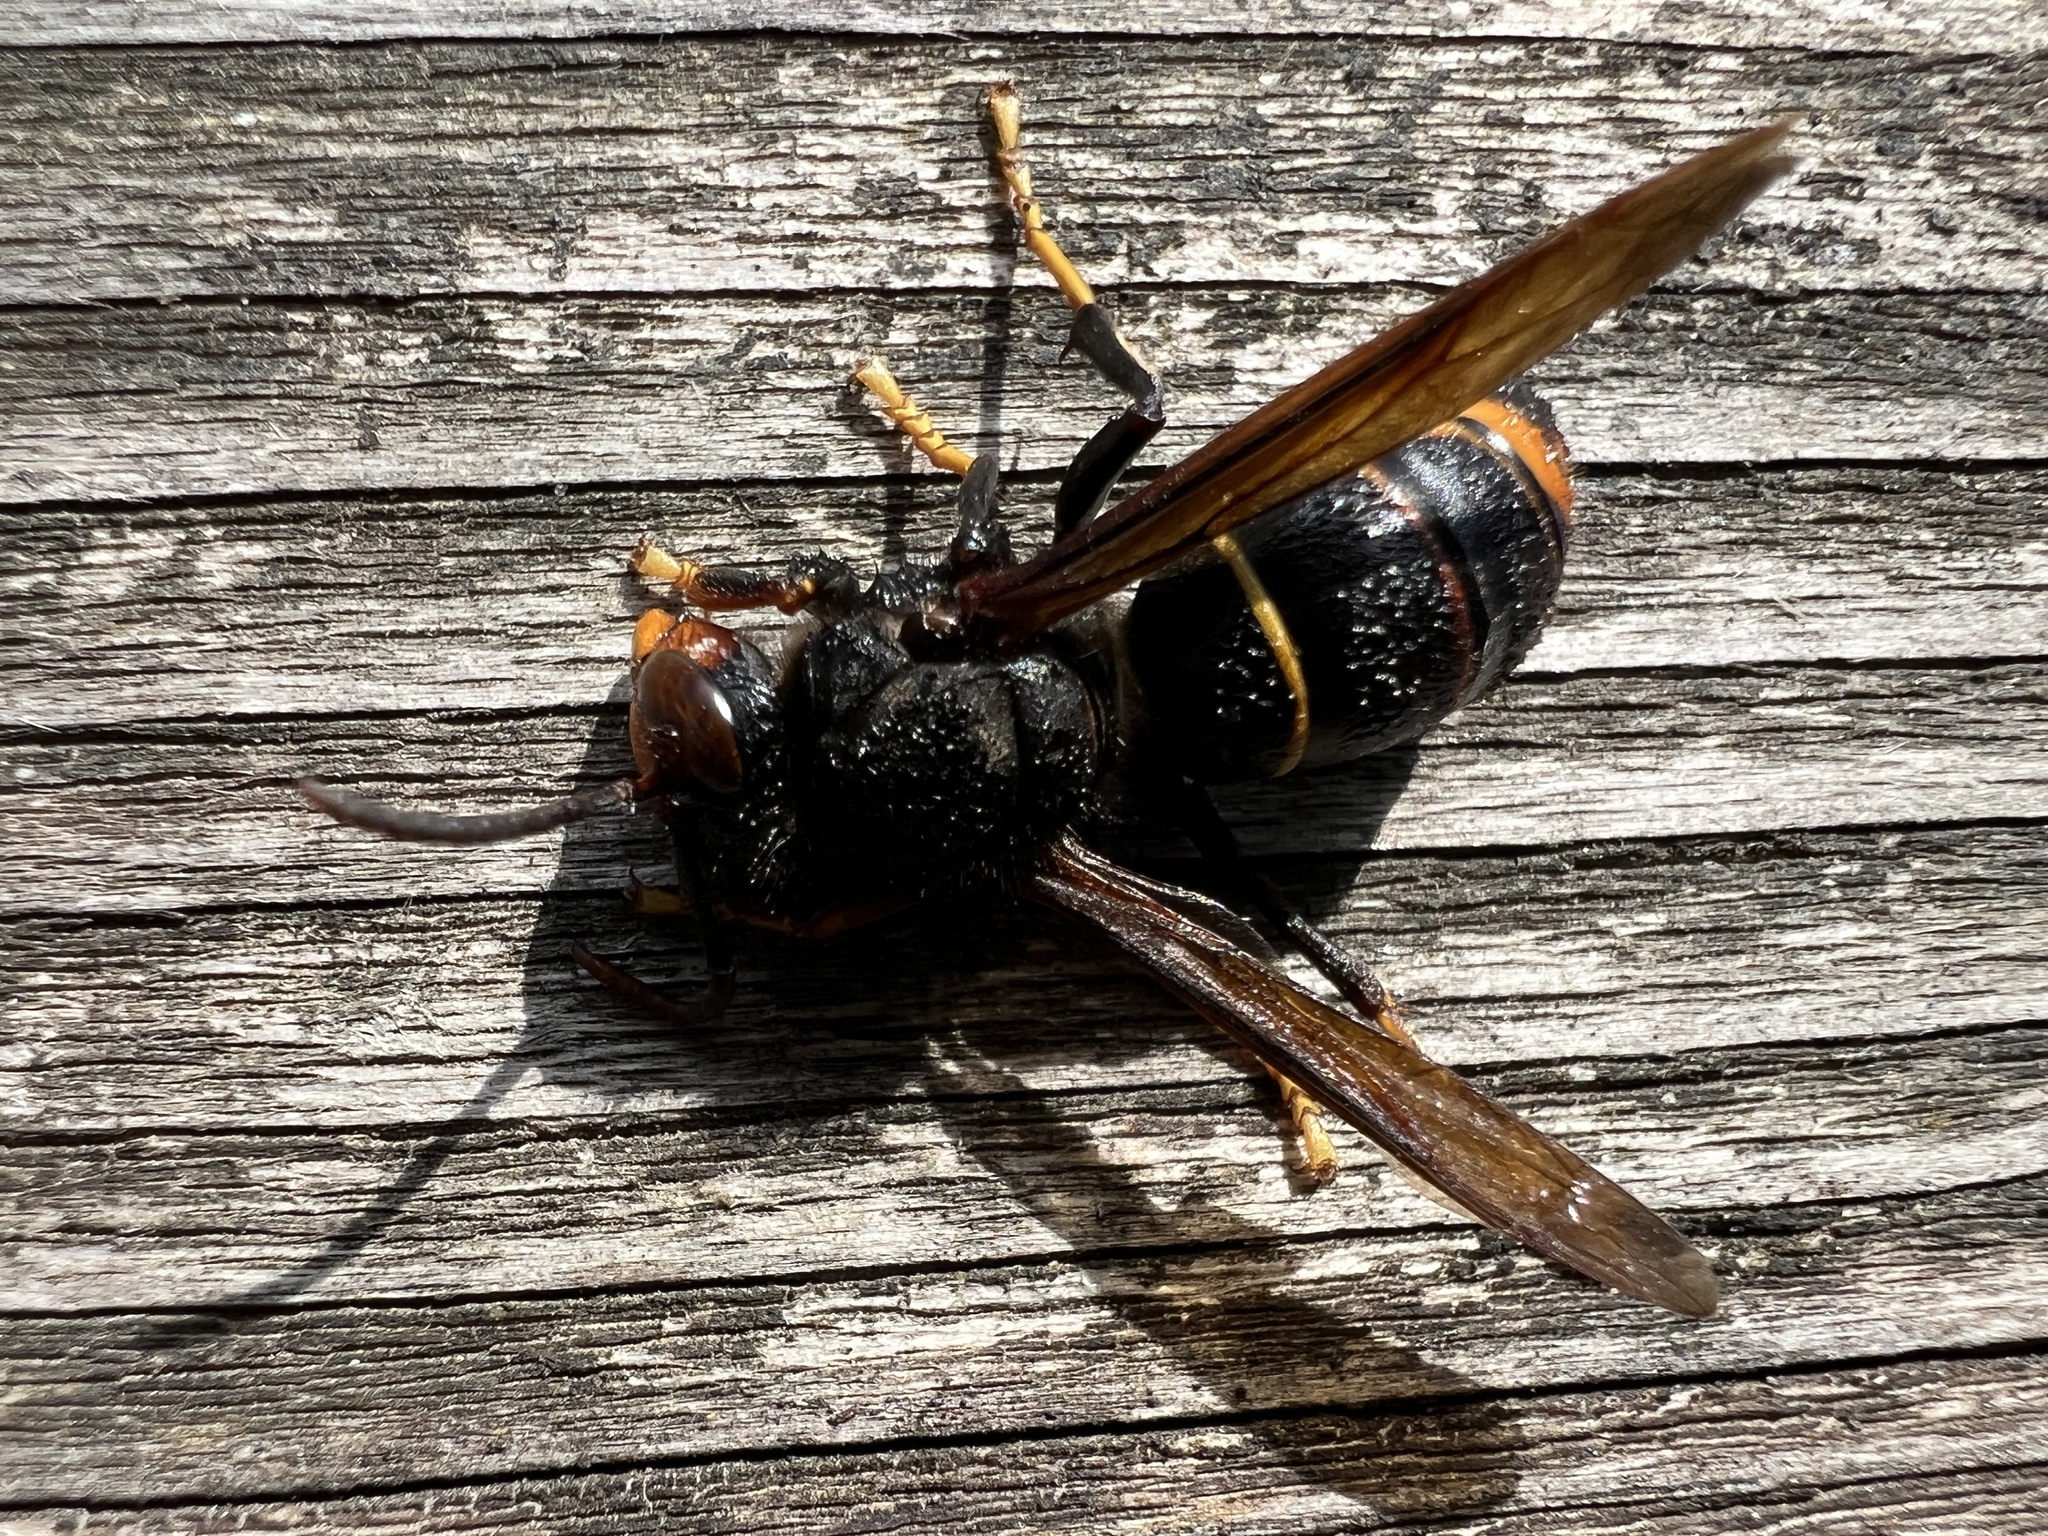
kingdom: Animalia
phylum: Arthropoda
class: Insecta
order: Hymenoptera
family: Vespidae
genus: Vespa
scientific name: Vespa velutina
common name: Asian hornet
